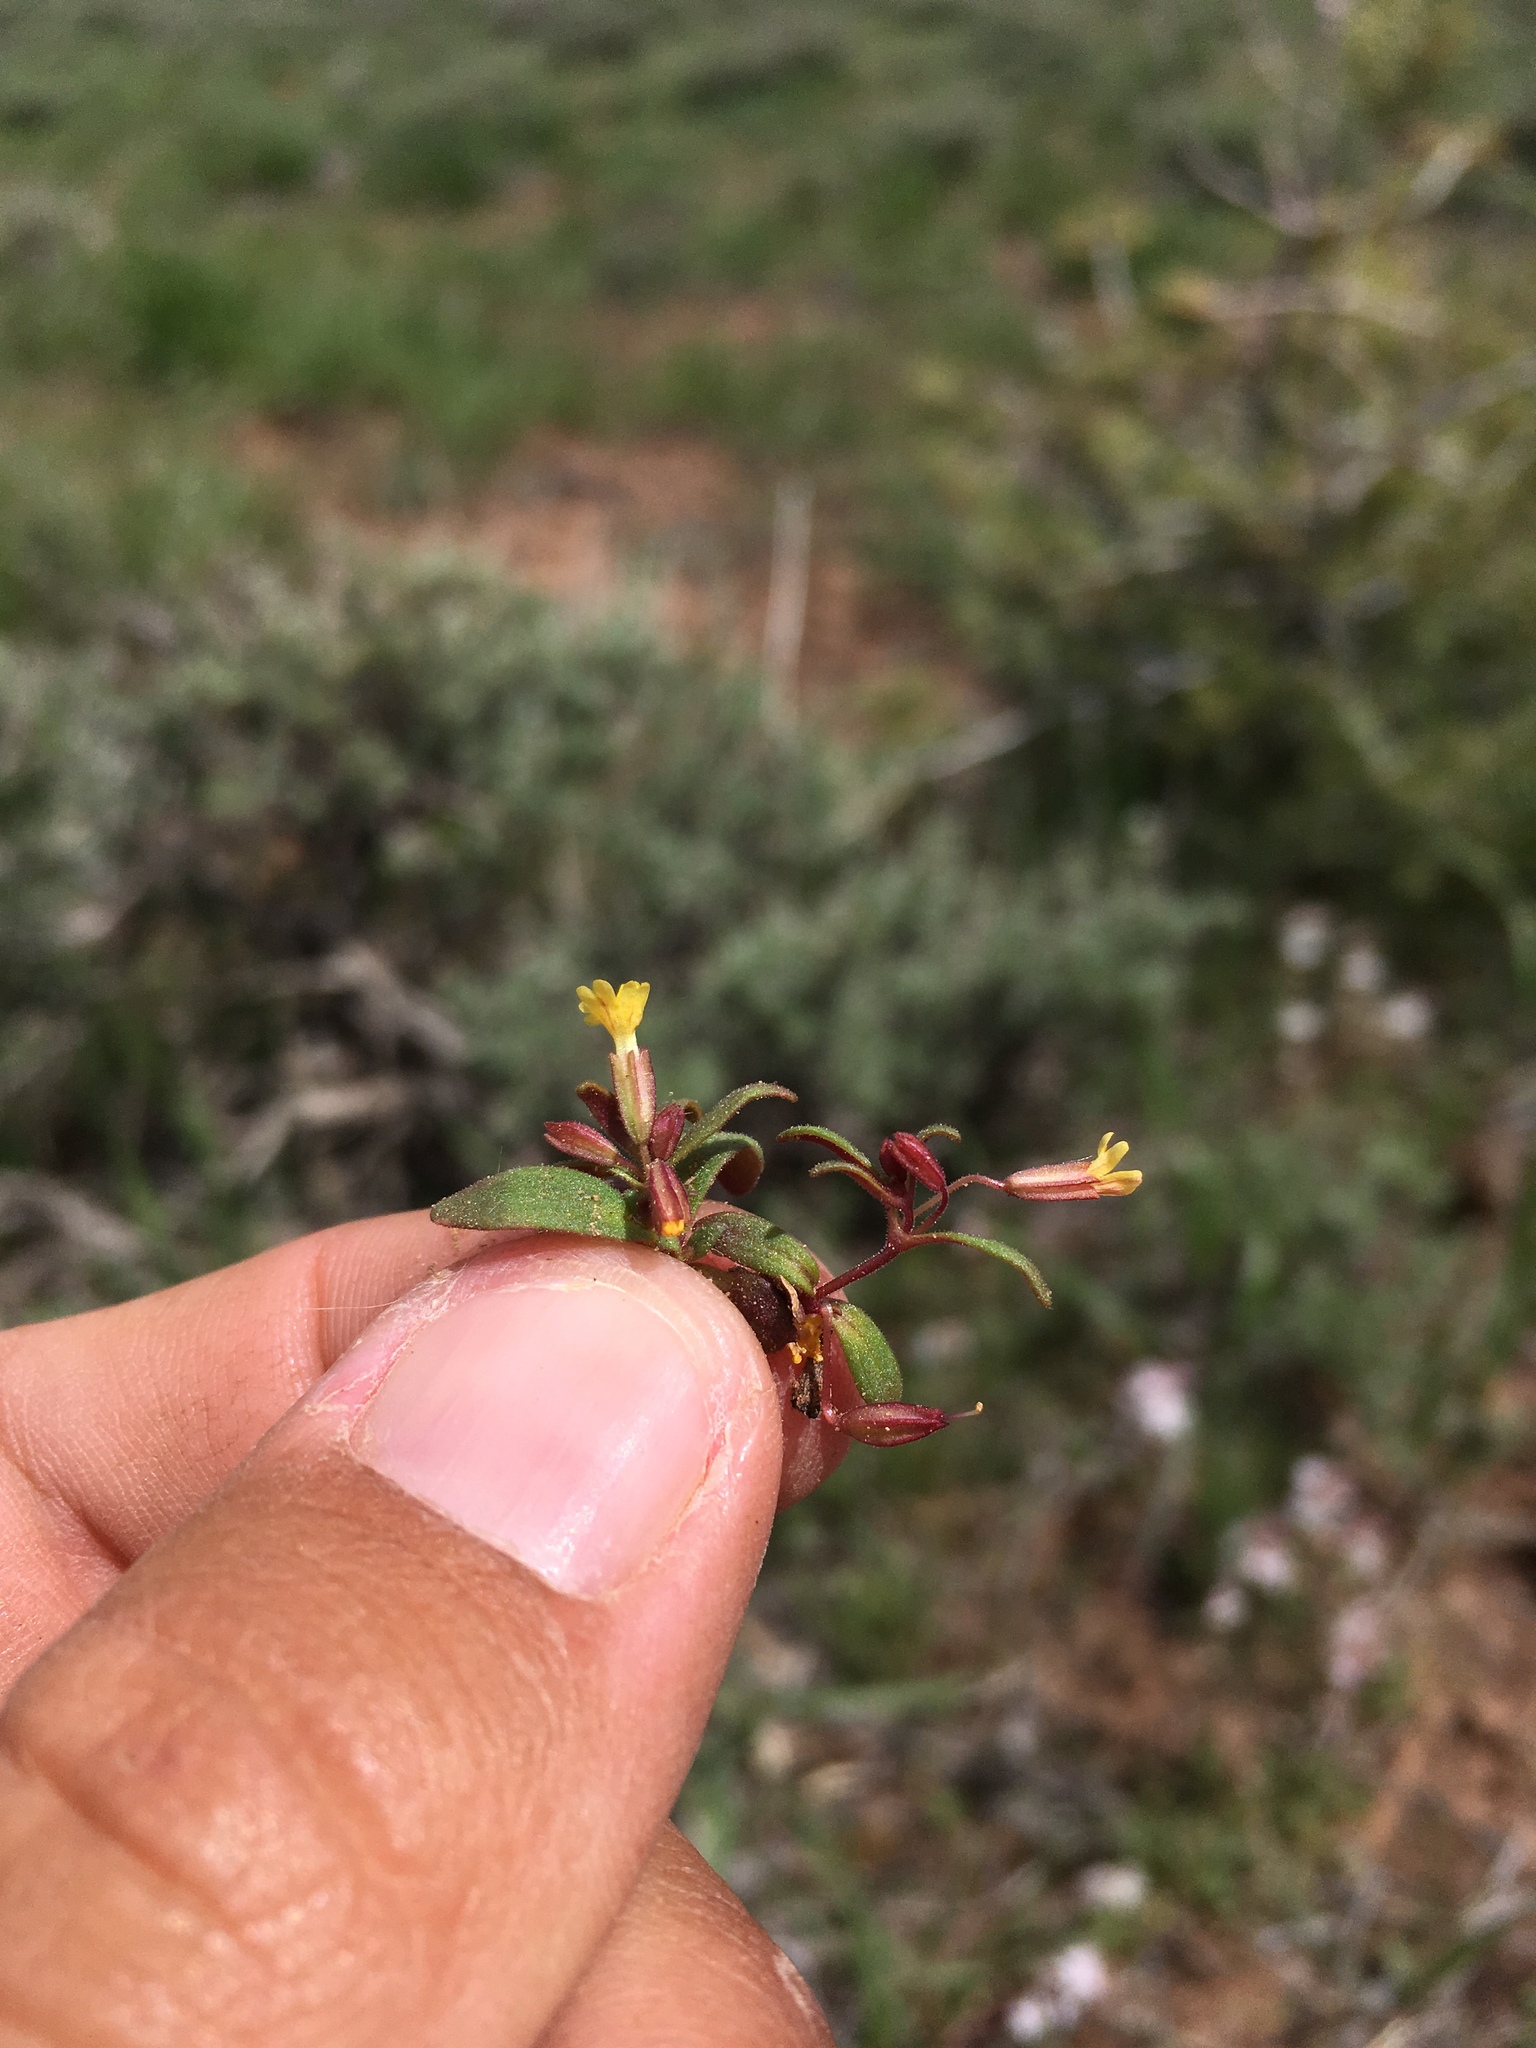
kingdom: Plantae
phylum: Tracheophyta
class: Magnoliopsida
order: Lamiales
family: Phrymaceae
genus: Erythranthe
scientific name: Erythranthe suksdorfii
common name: Suksdorf's monkeyflower
